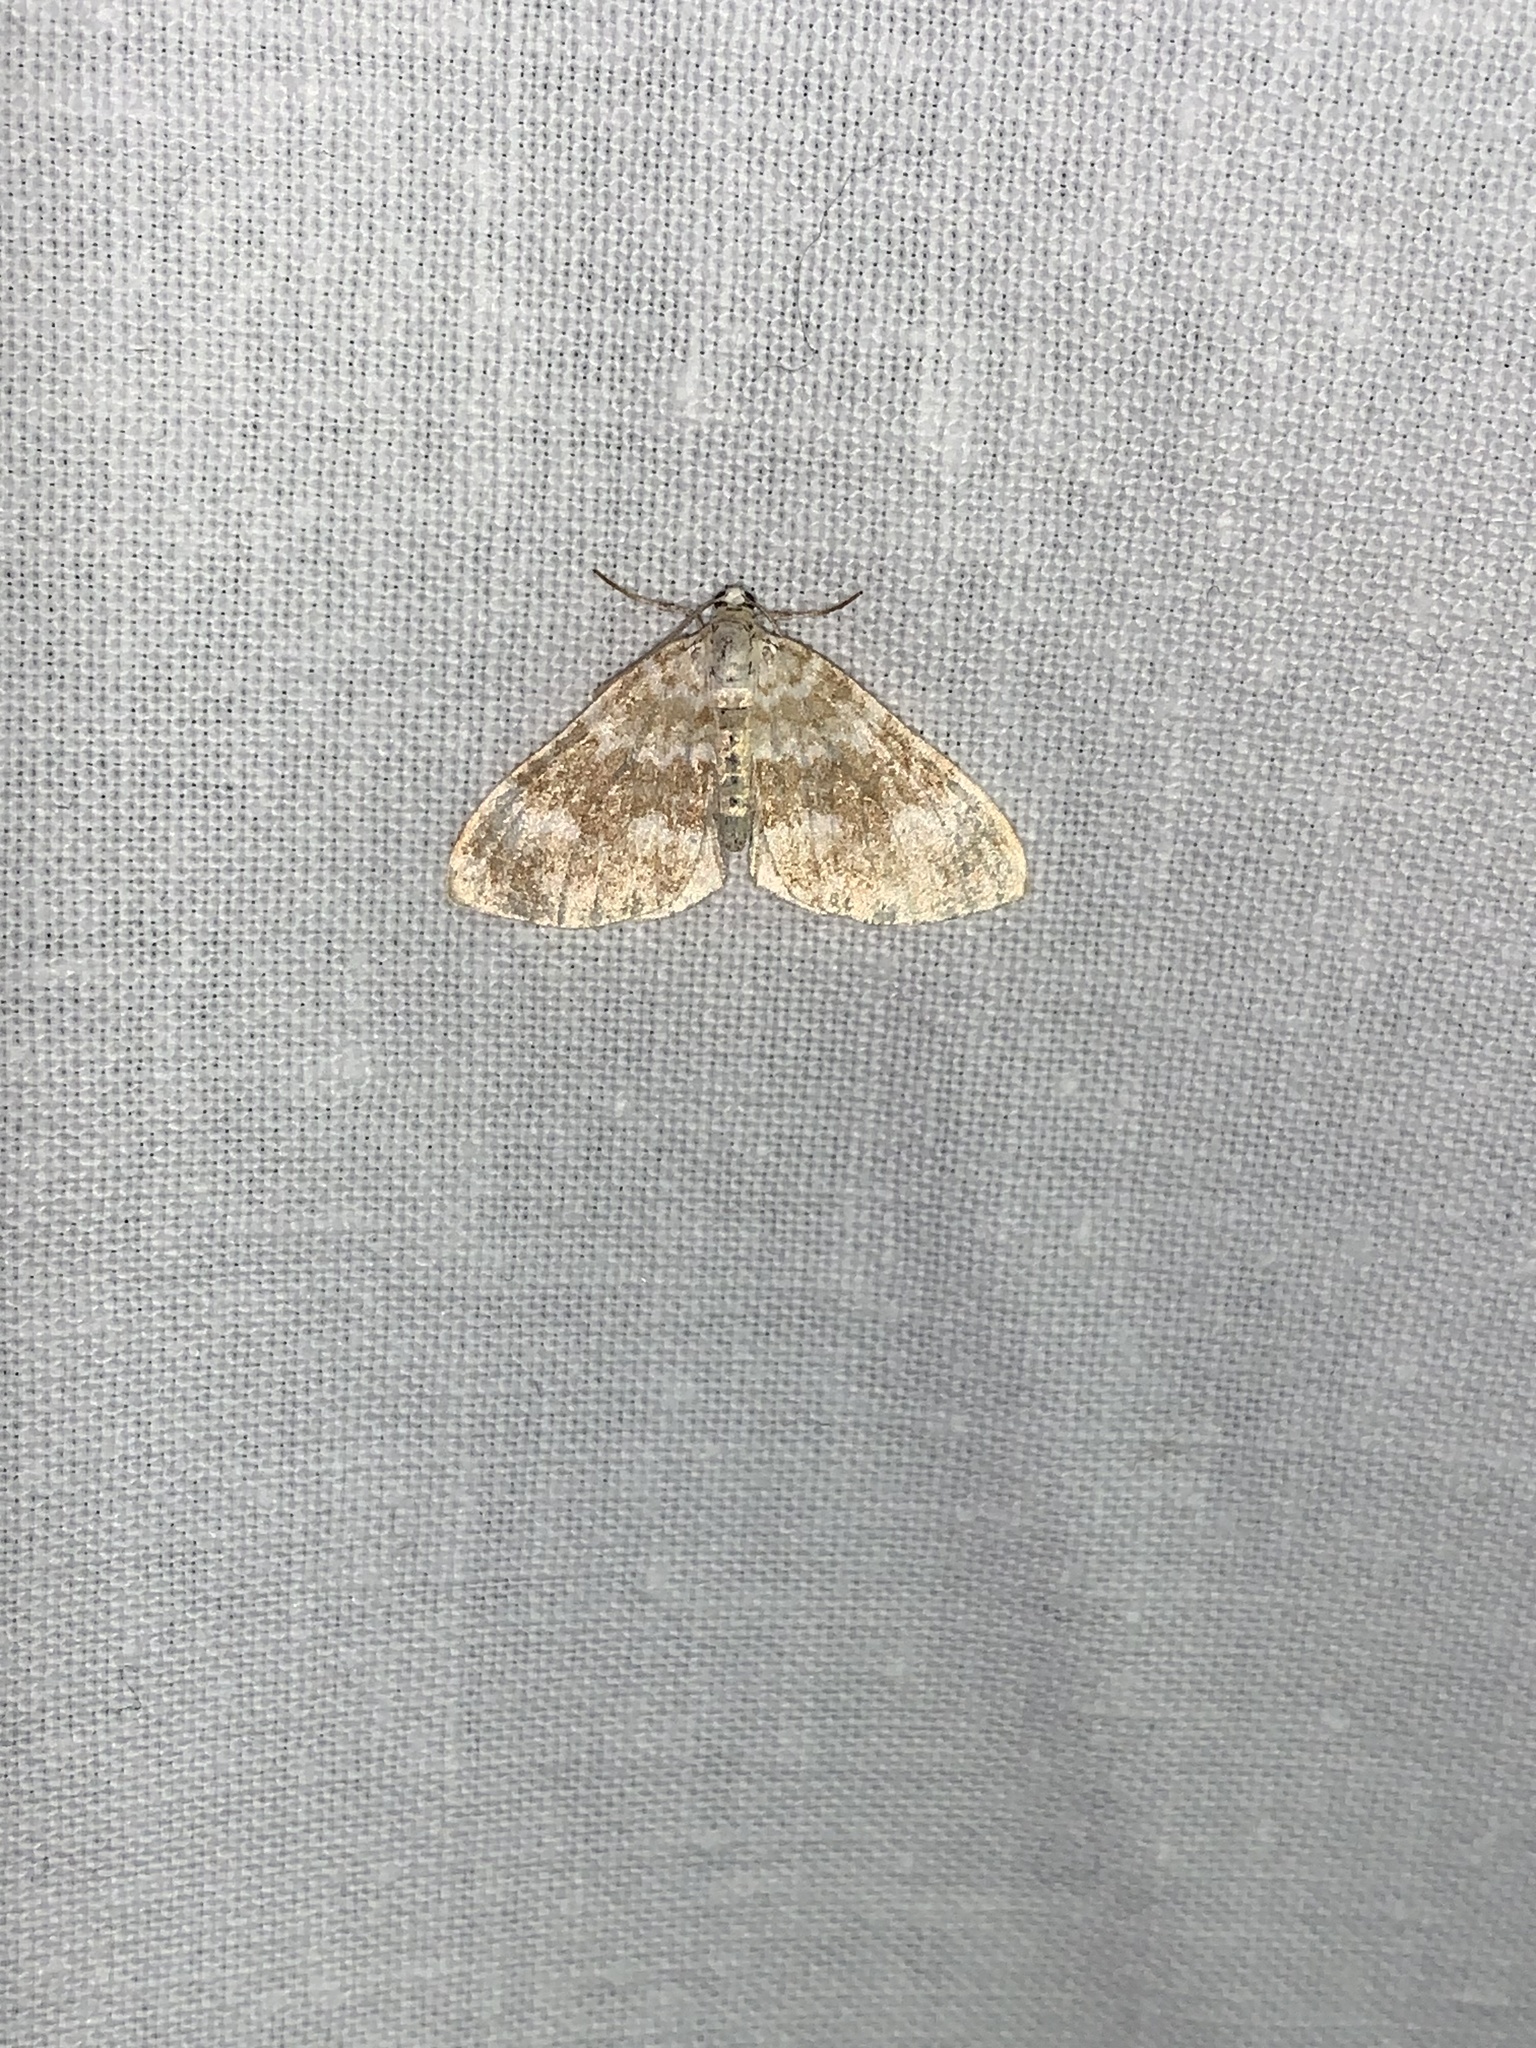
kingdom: Animalia
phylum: Arthropoda
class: Insecta
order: Lepidoptera
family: Geometridae
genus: Perizoma
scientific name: Perizoma flavofasciata
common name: Sandy carpet
